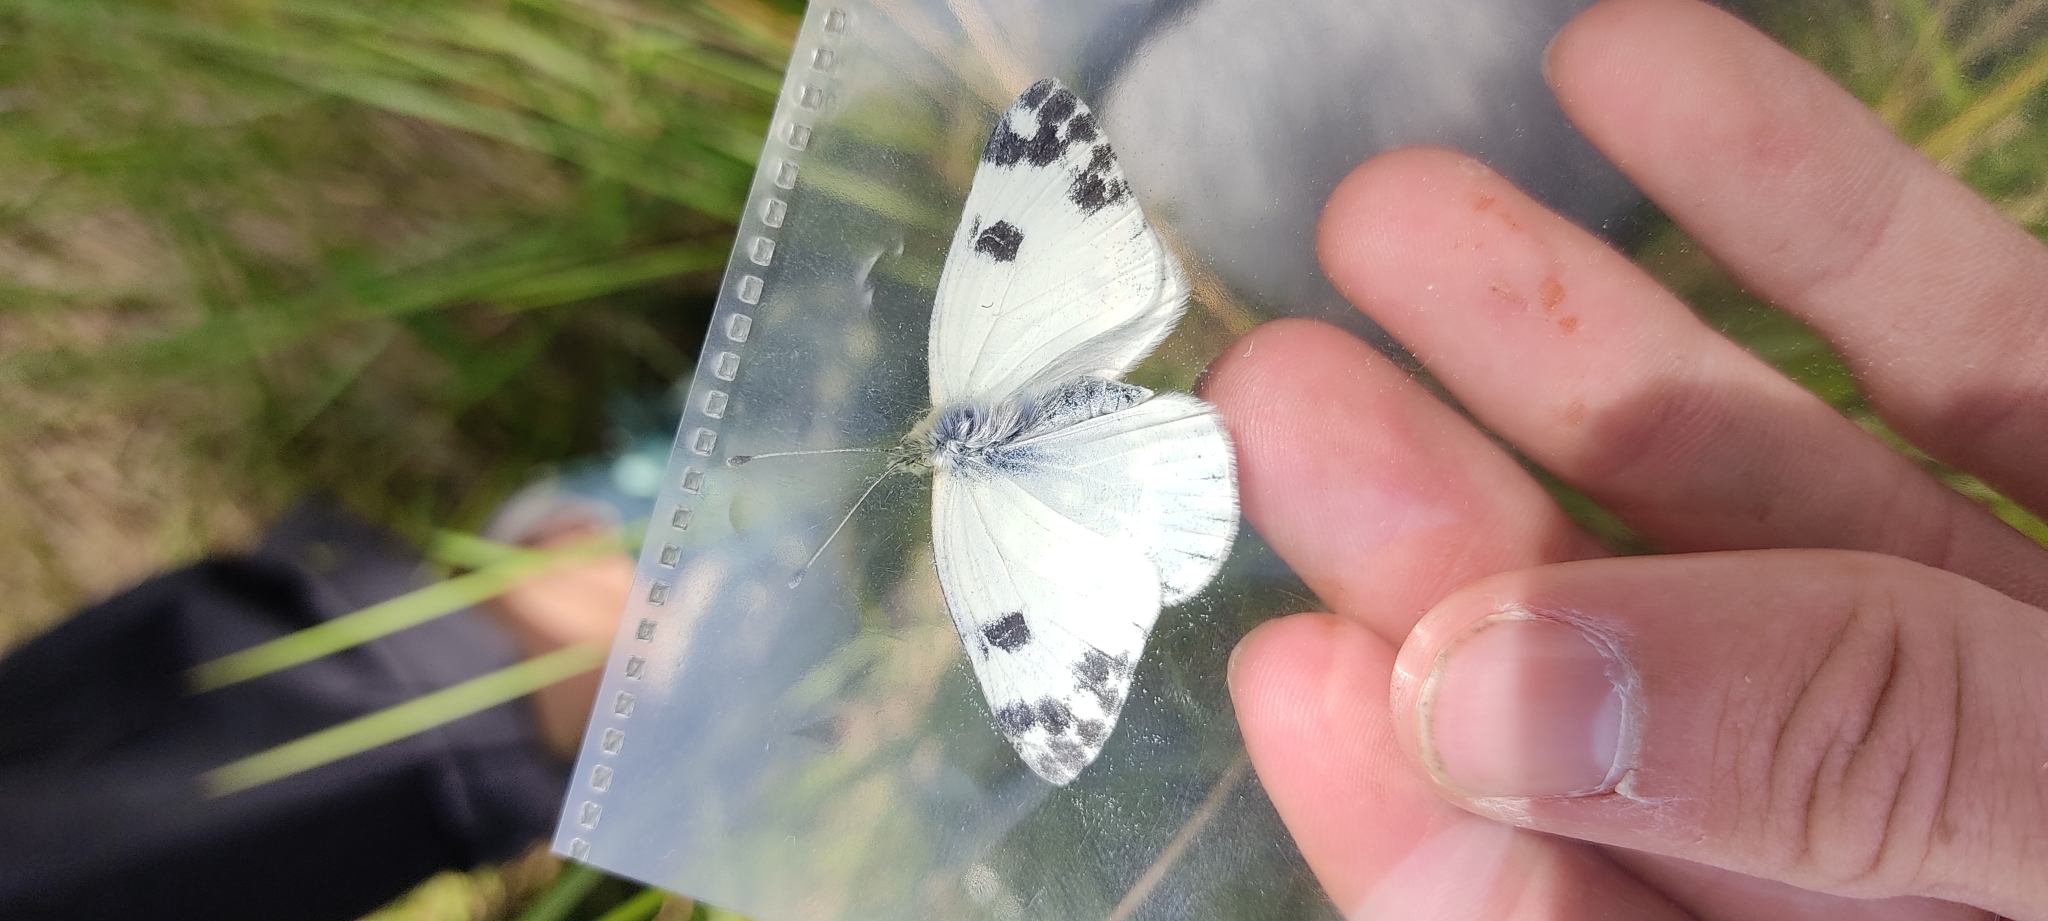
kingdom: Animalia
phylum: Arthropoda
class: Insecta
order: Lepidoptera
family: Pieridae
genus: Pontia
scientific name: Pontia daplidice
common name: Bath white
